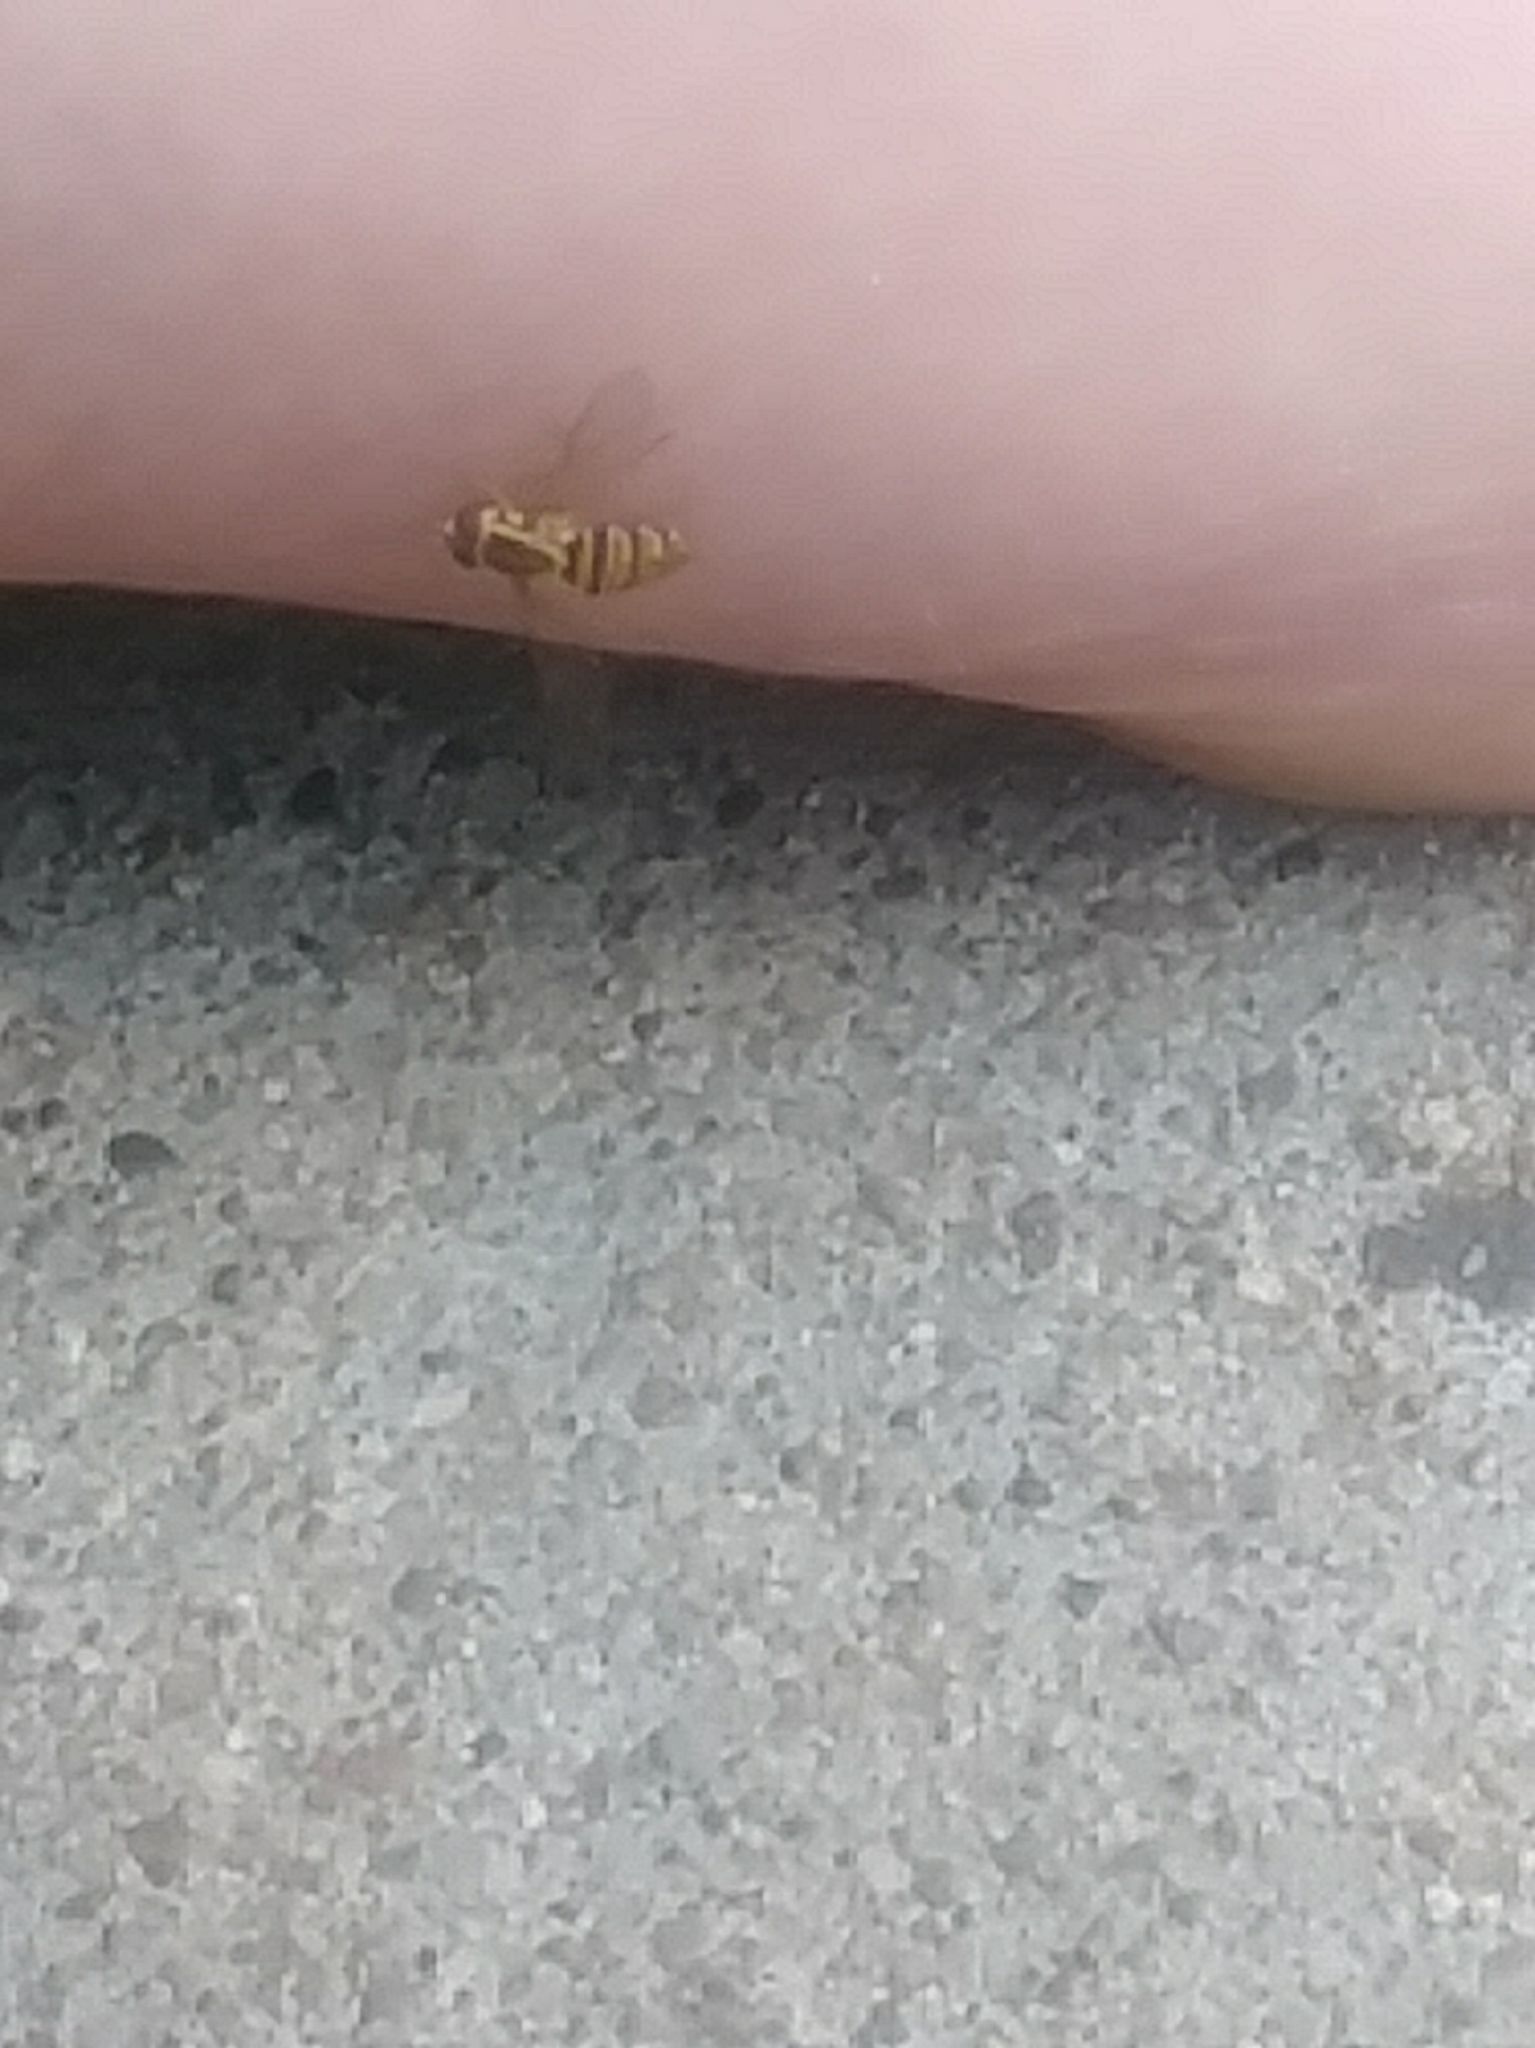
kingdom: Animalia
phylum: Arthropoda
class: Insecta
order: Diptera
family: Syrphidae
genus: Toxomerus
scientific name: Toxomerus politus
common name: Maize calligrapher
